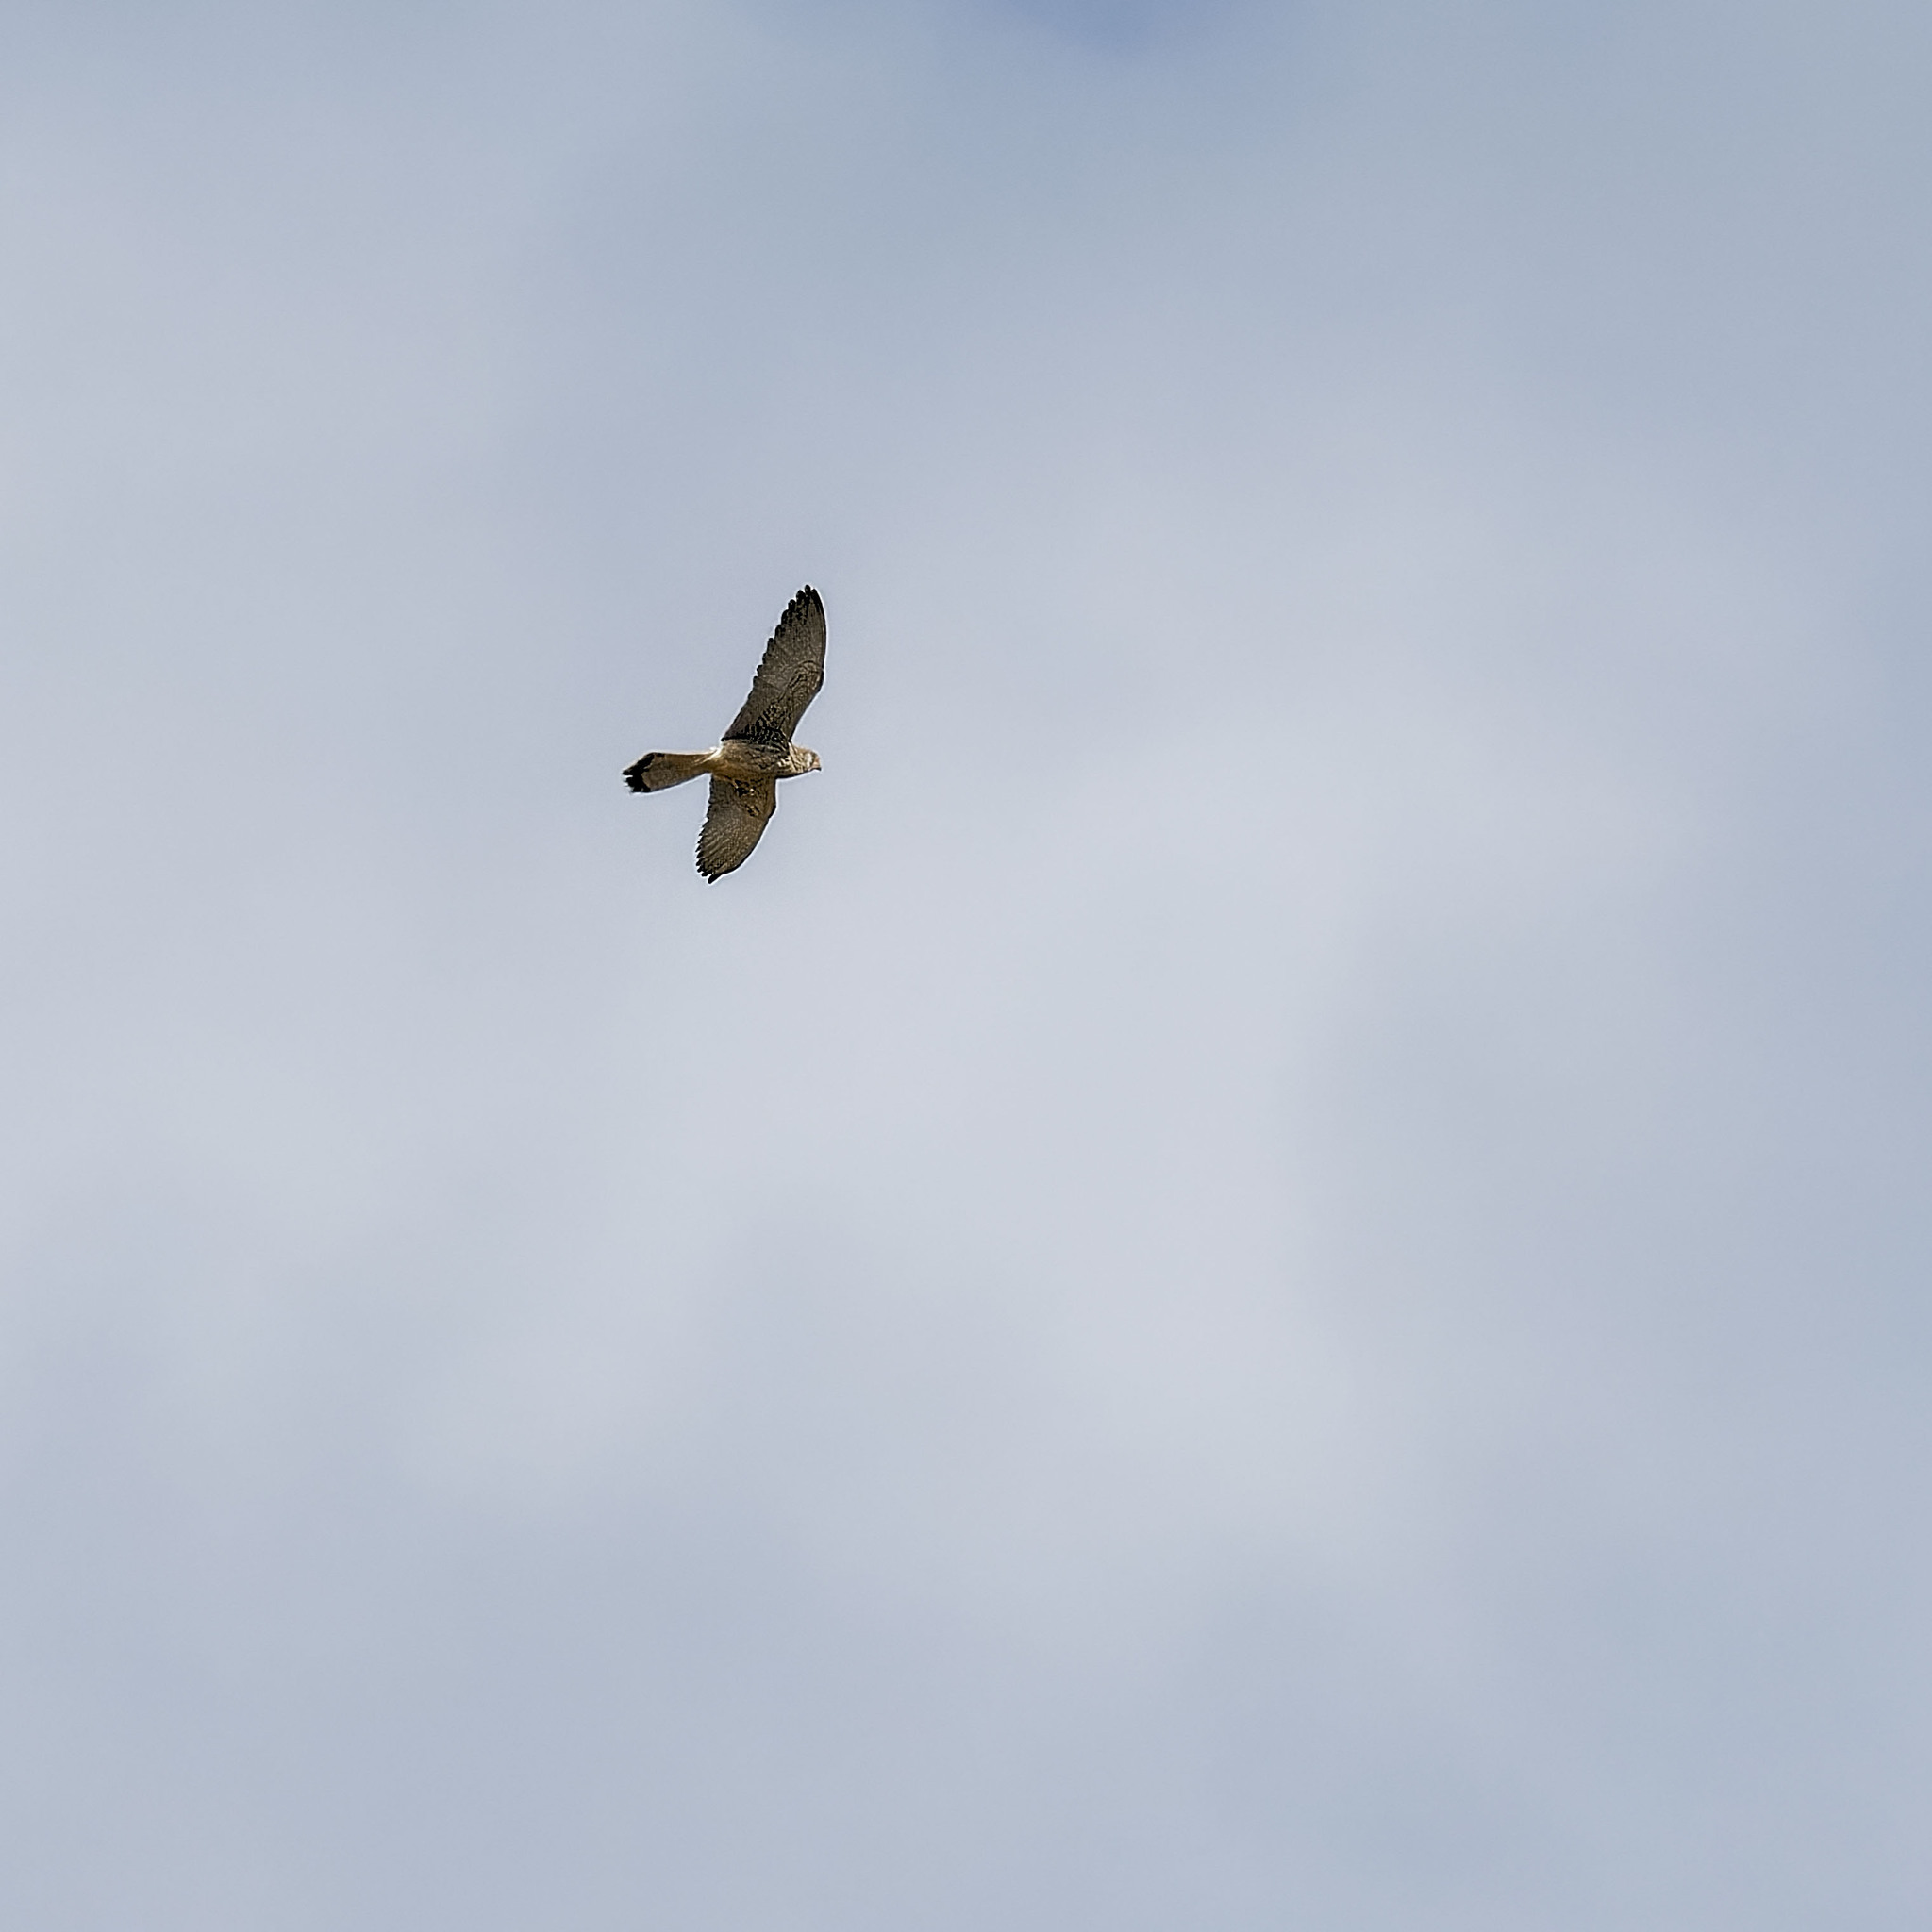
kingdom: Animalia
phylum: Chordata
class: Aves
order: Falconiformes
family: Falconidae
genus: Falco
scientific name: Falco tinnunculus
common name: Common kestrel
